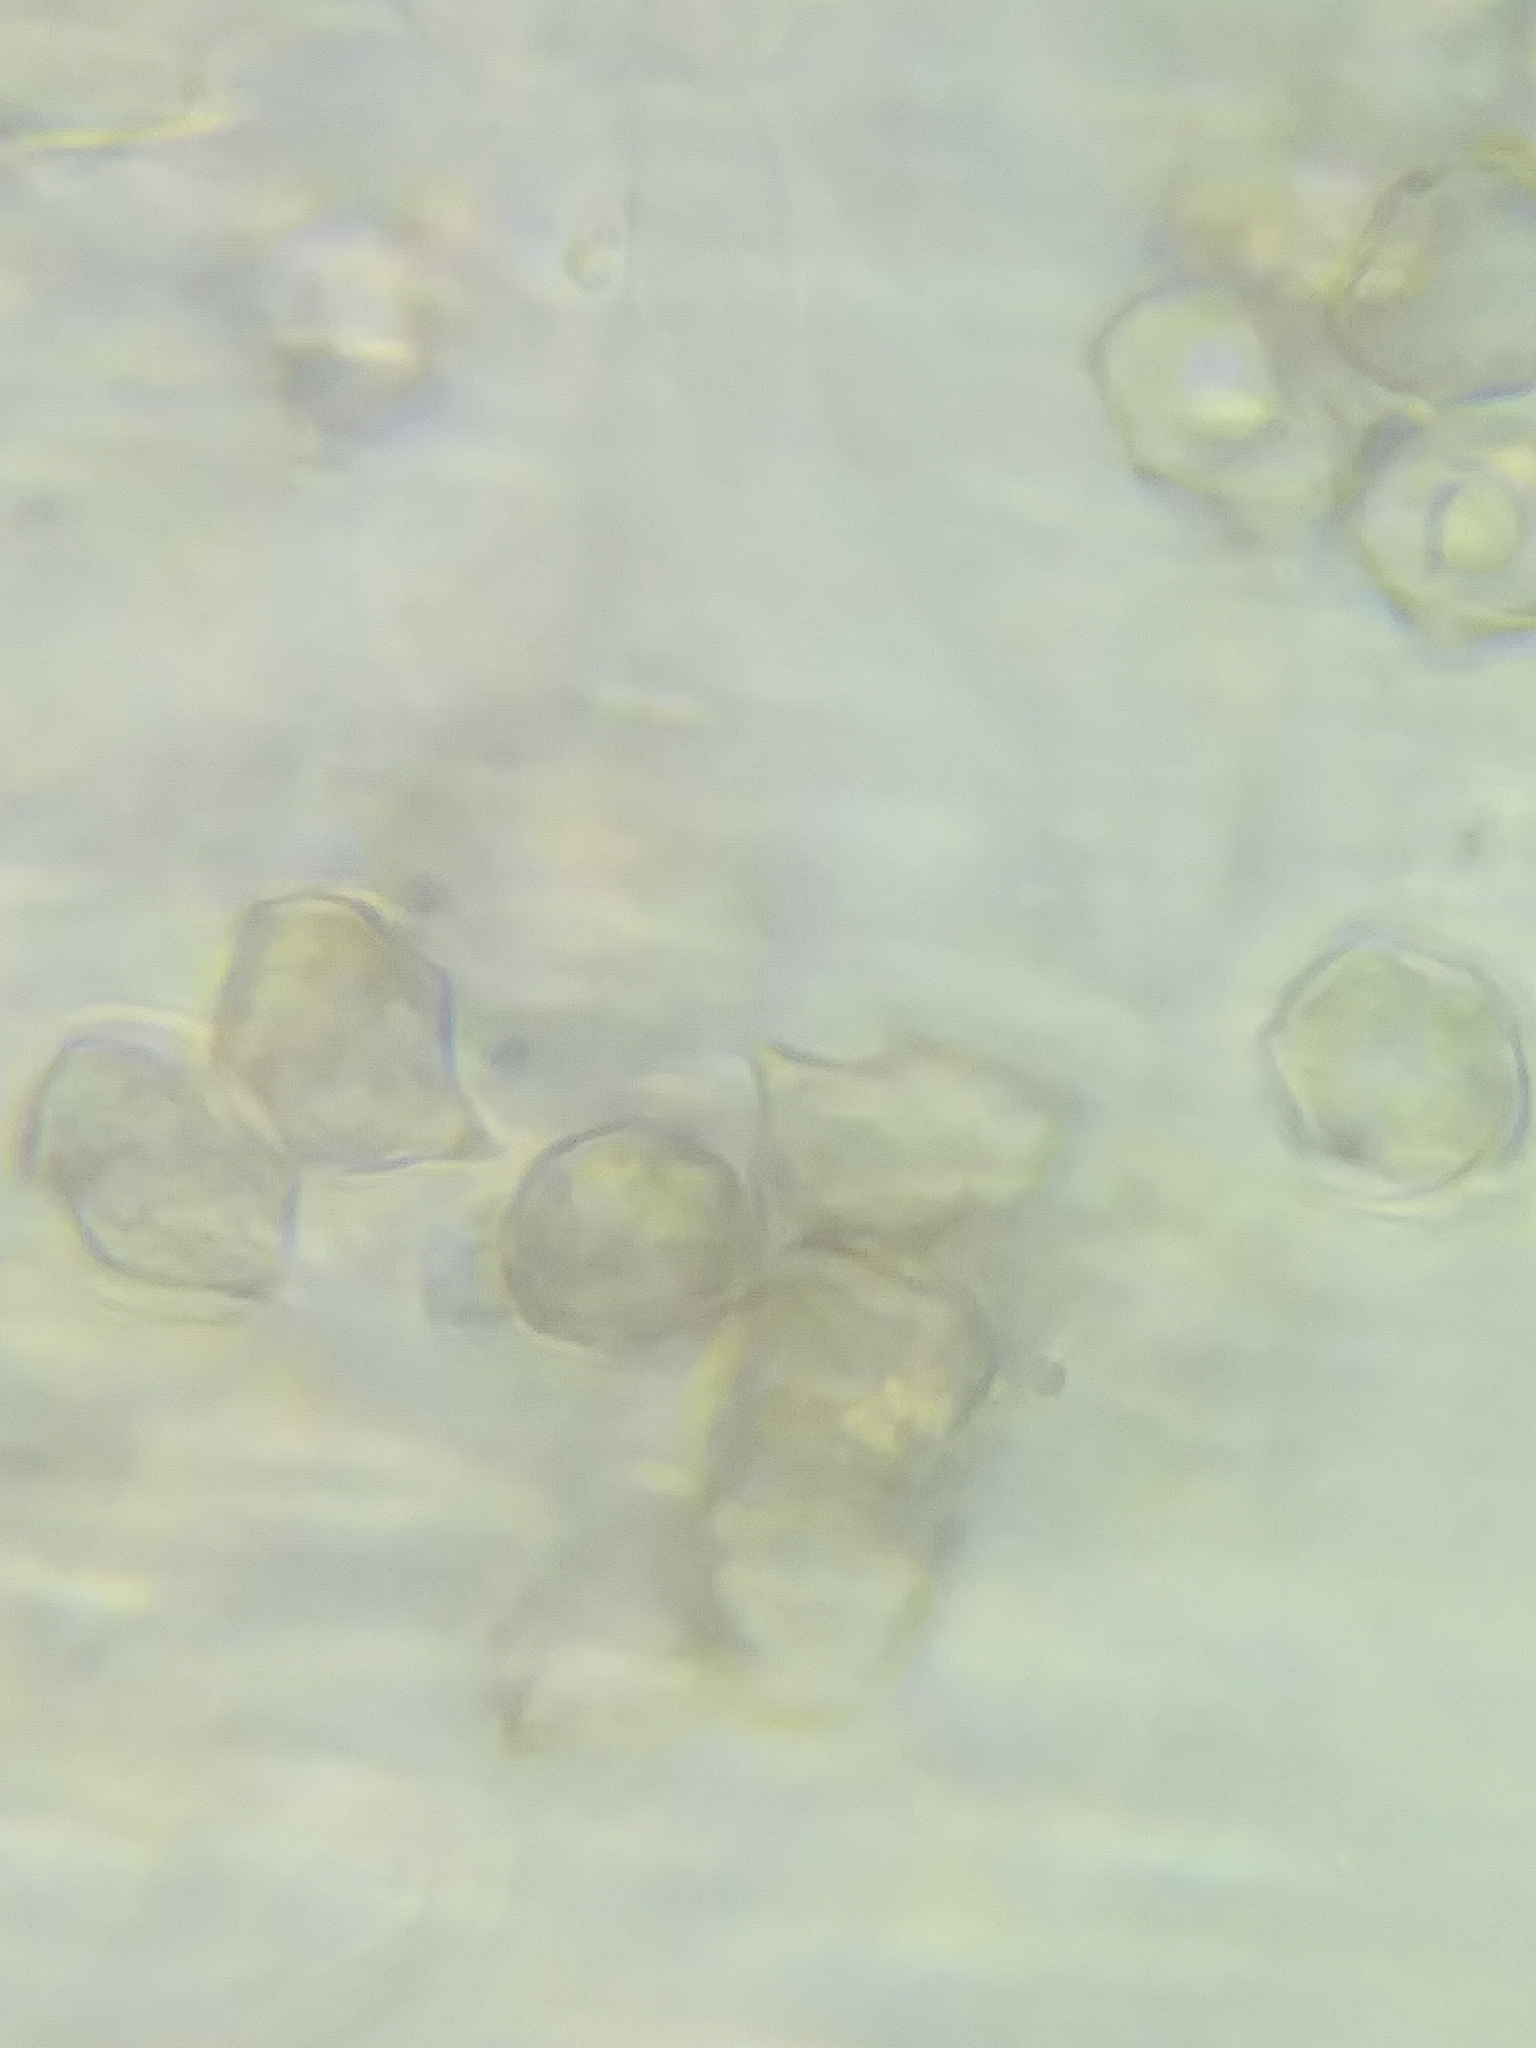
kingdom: Fungi
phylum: Basidiomycota
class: Agaricomycetes
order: Agaricales
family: Entolomataceae
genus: Entoloma
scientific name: Entoloma cetratum
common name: Honey pinkgill
